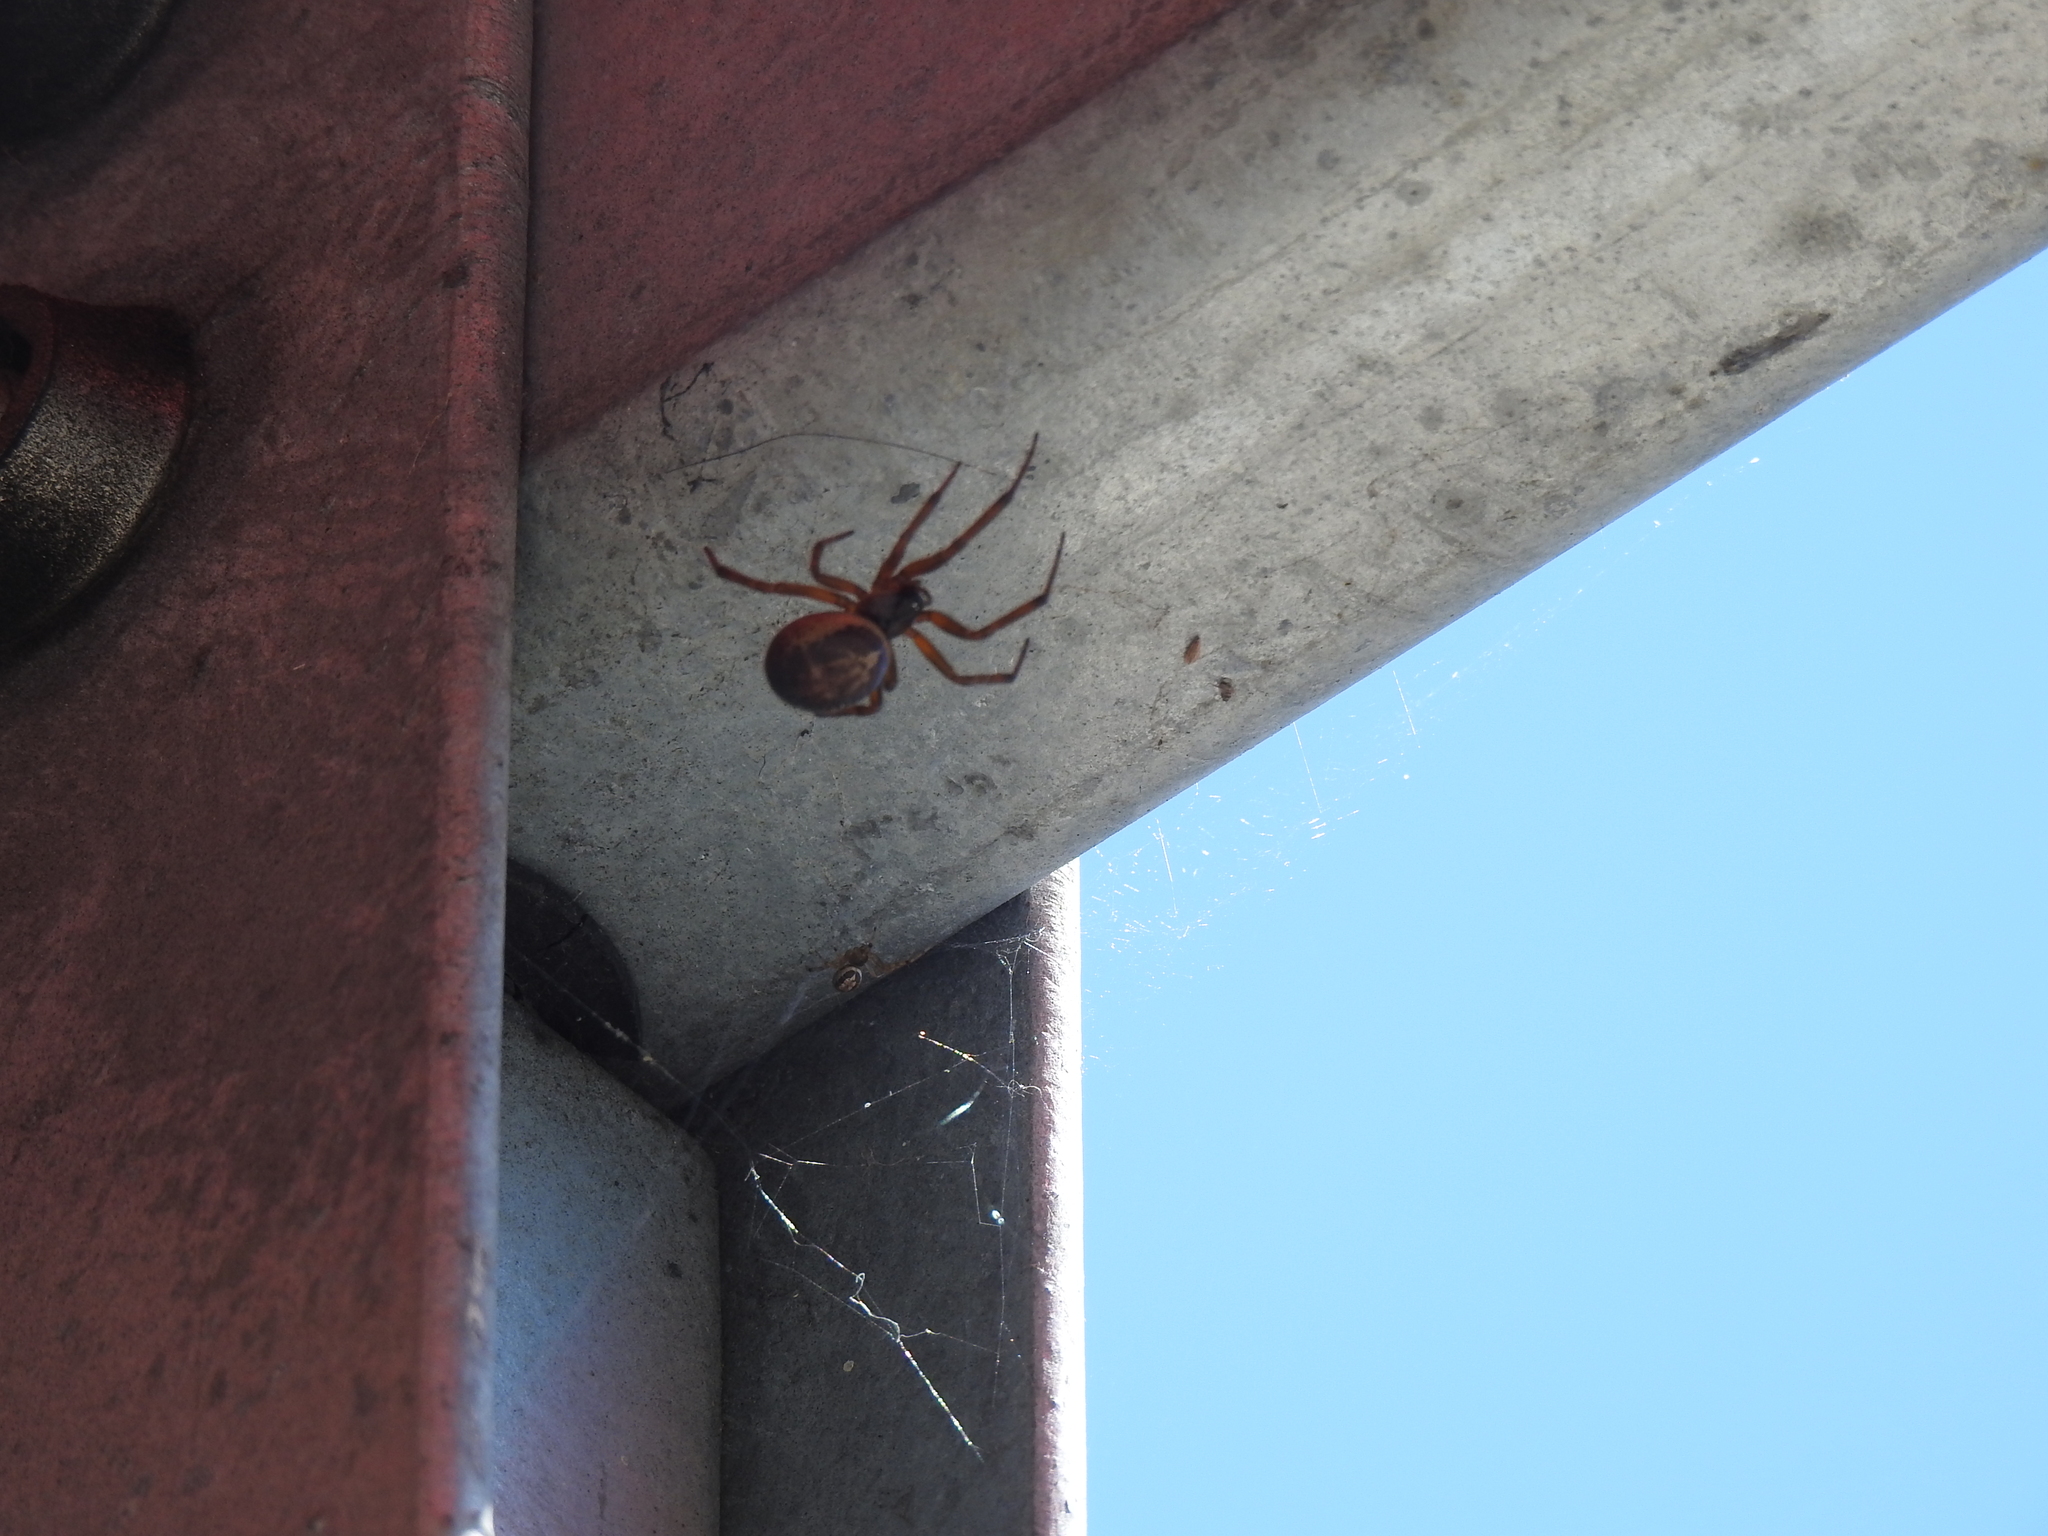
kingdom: Animalia
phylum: Arthropoda
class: Arachnida
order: Araneae
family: Theridiidae
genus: Steatoda
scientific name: Steatoda nobilis
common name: Cobweb weaver
